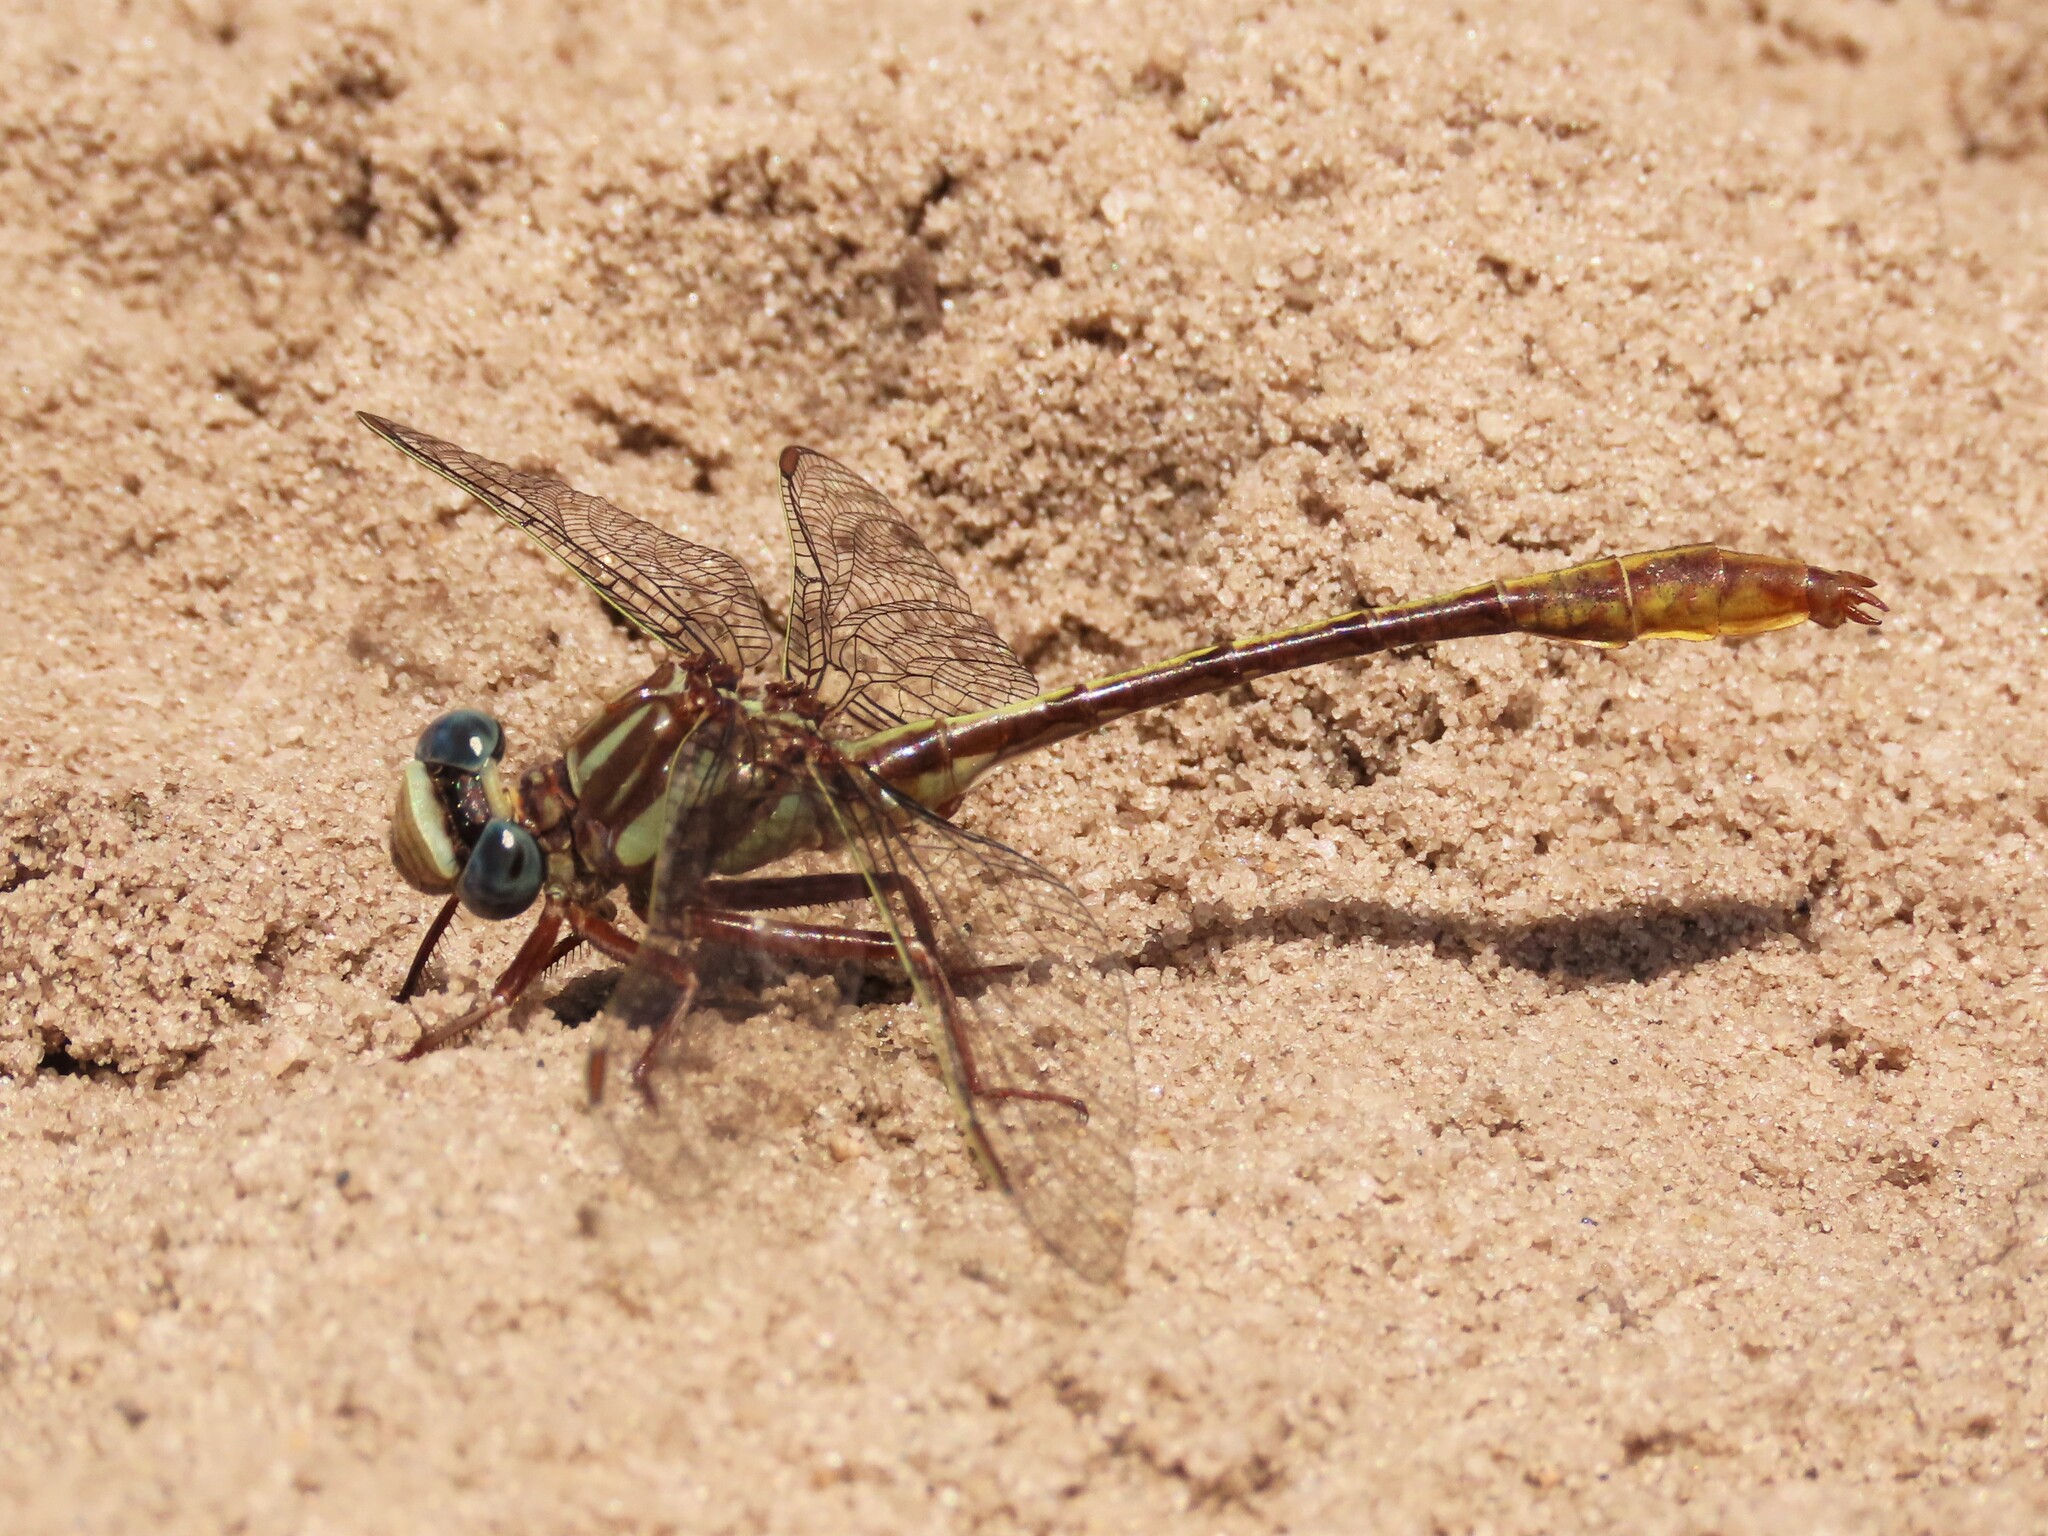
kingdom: Animalia
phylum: Arthropoda
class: Insecta
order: Odonata
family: Gomphidae
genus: Phanogomphus
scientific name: Phanogomphus minutus
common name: Cypress clubtail
